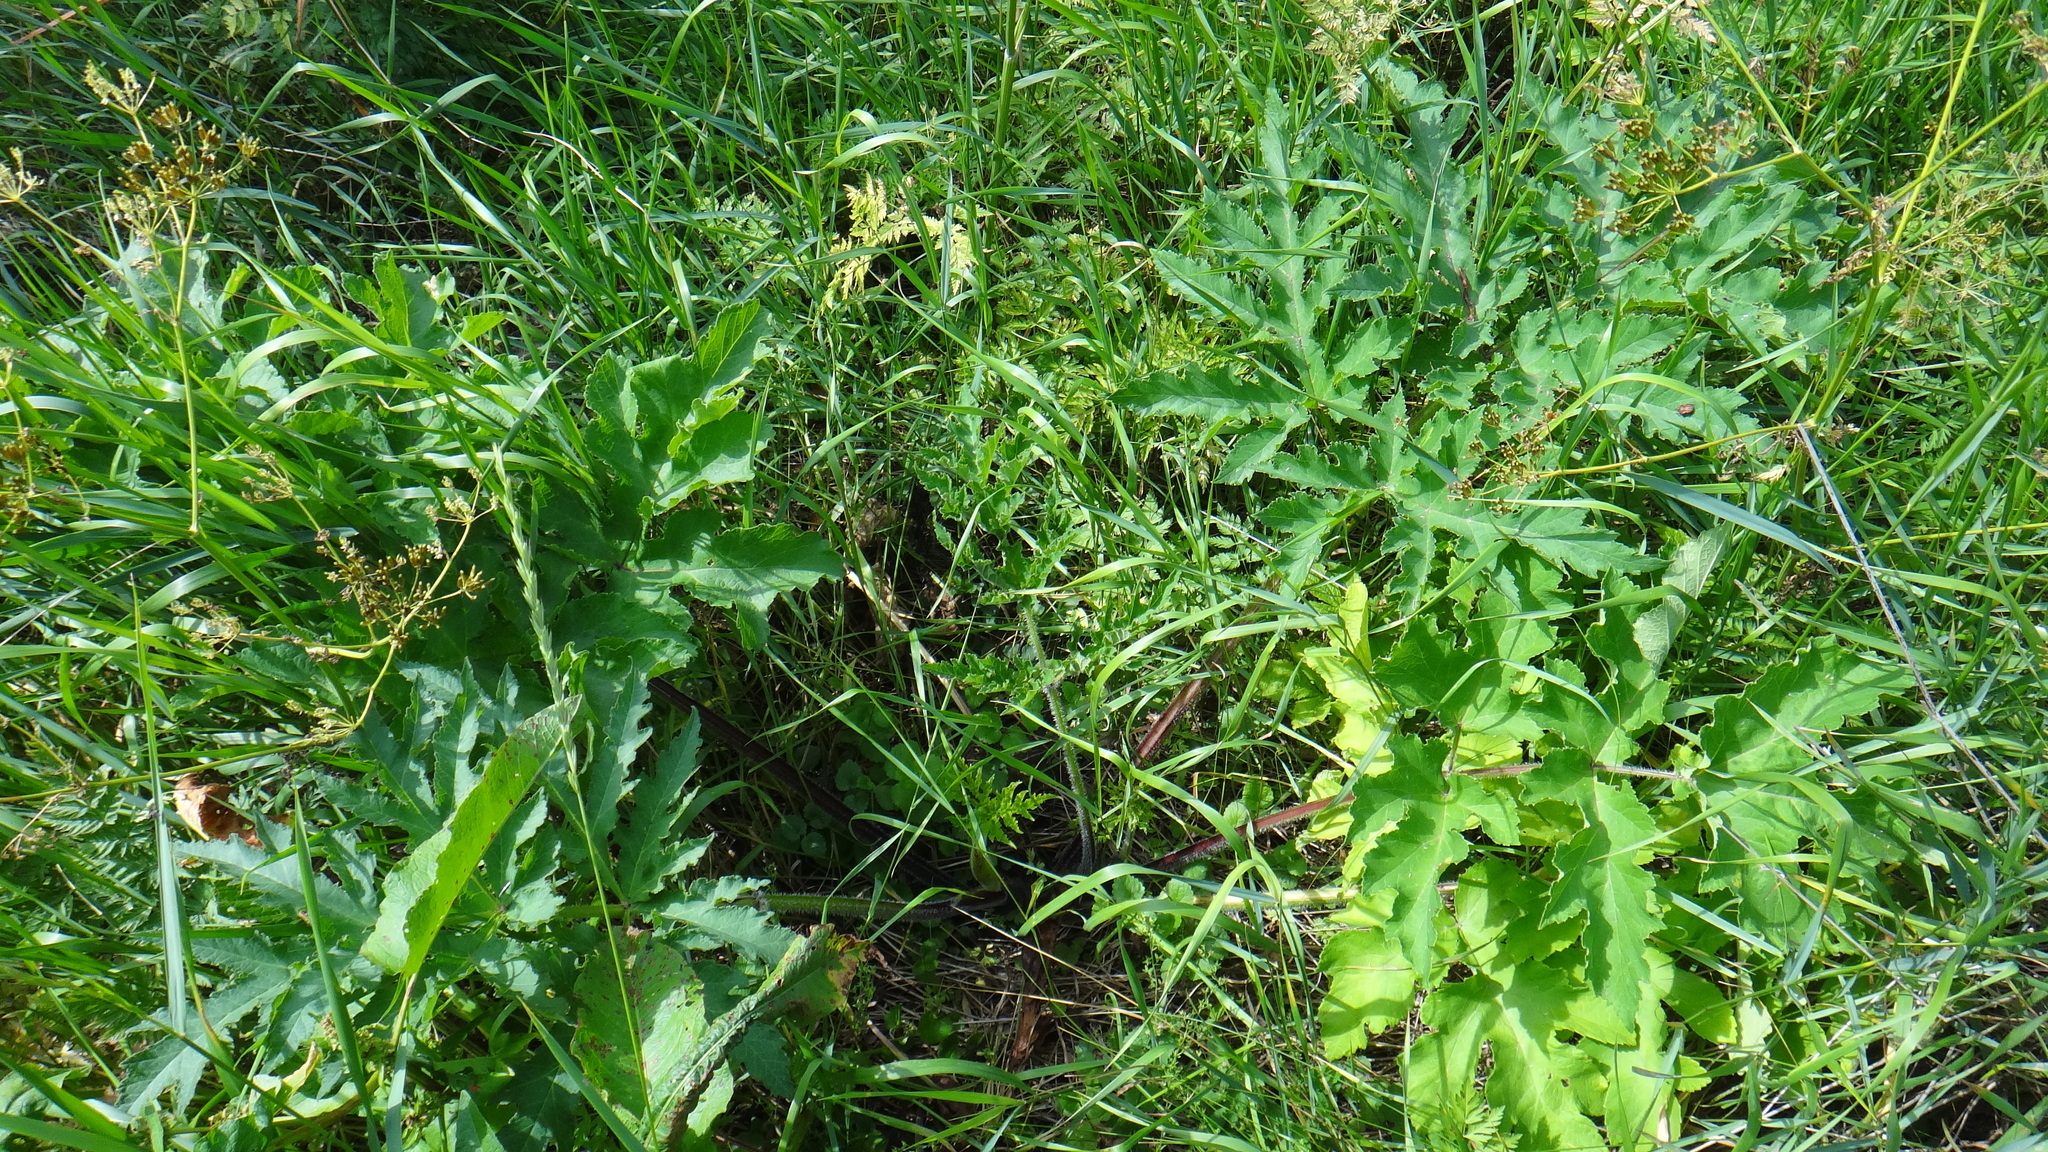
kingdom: Plantae
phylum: Tracheophyta
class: Magnoliopsida
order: Apiales
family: Apiaceae
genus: Heracleum
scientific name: Heracleum sphondylium
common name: Hogweed
